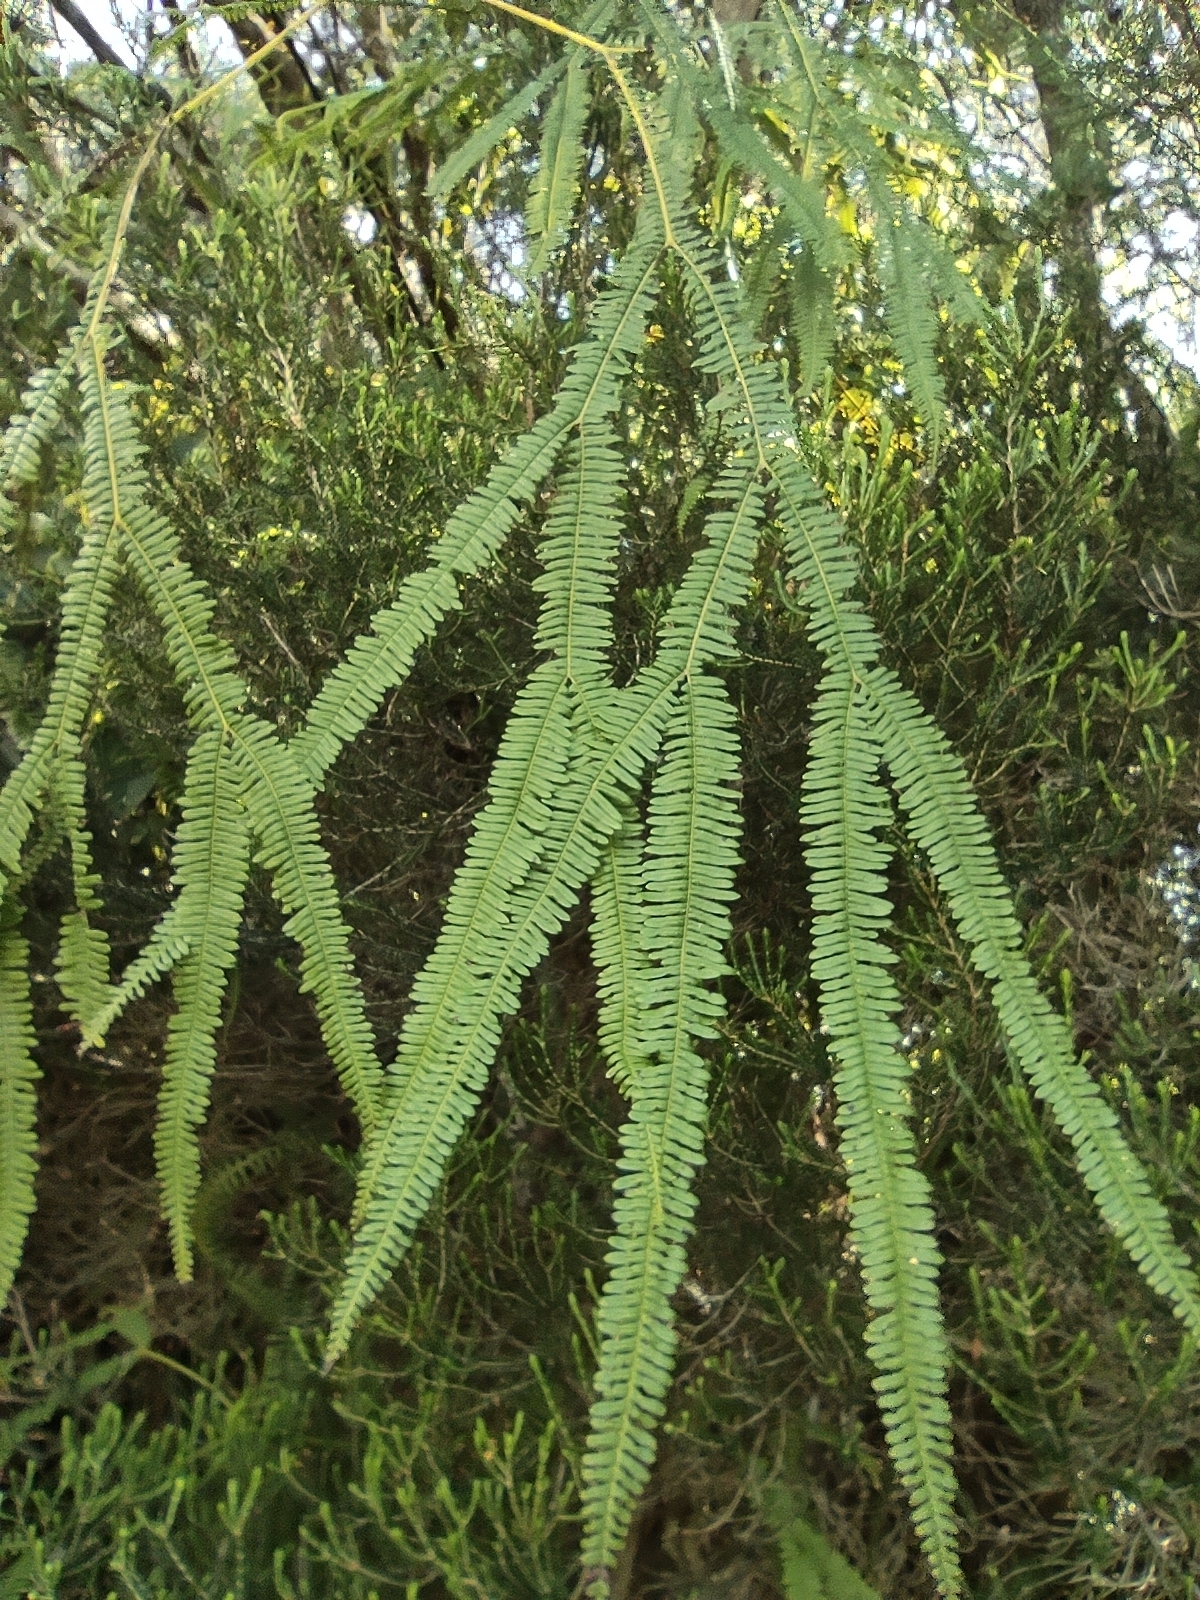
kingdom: Plantae
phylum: Tracheophyta
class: Polypodiopsida
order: Gleicheniales
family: Gleicheniaceae
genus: Sticherus
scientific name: Sticherus flagellaris
